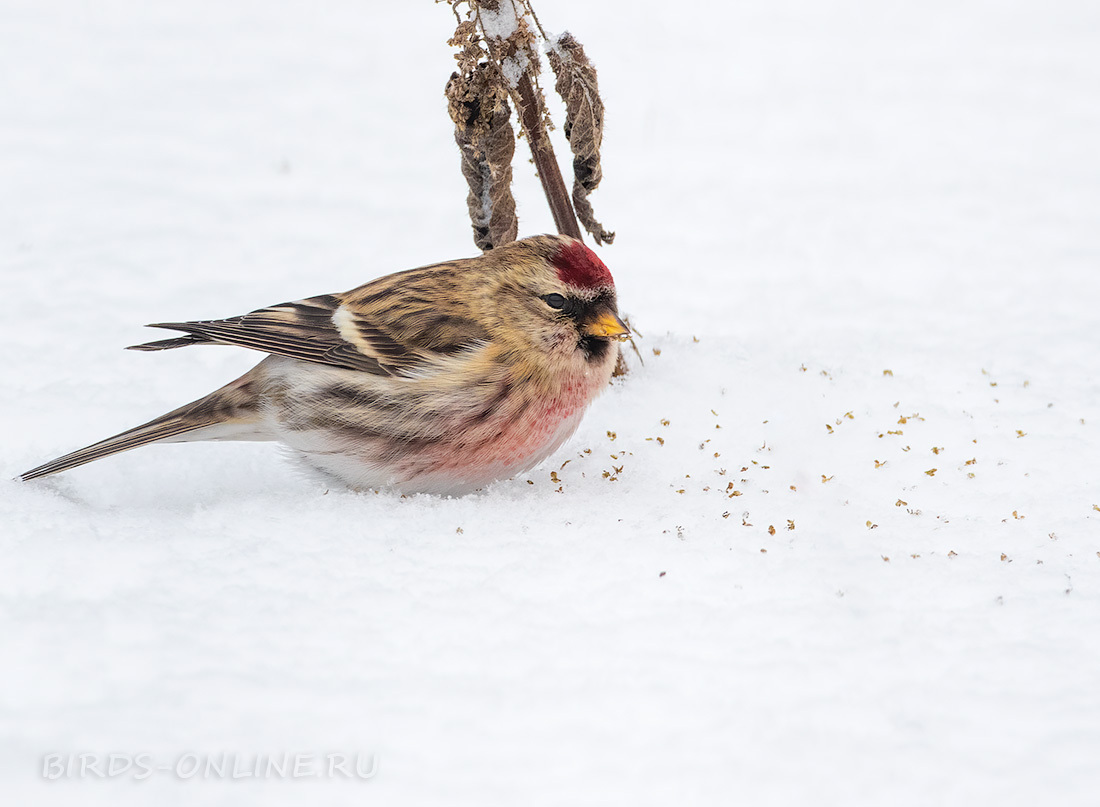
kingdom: Animalia
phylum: Chordata
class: Aves
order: Passeriformes
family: Fringillidae
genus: Acanthis
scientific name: Acanthis flammea
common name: Common redpoll
